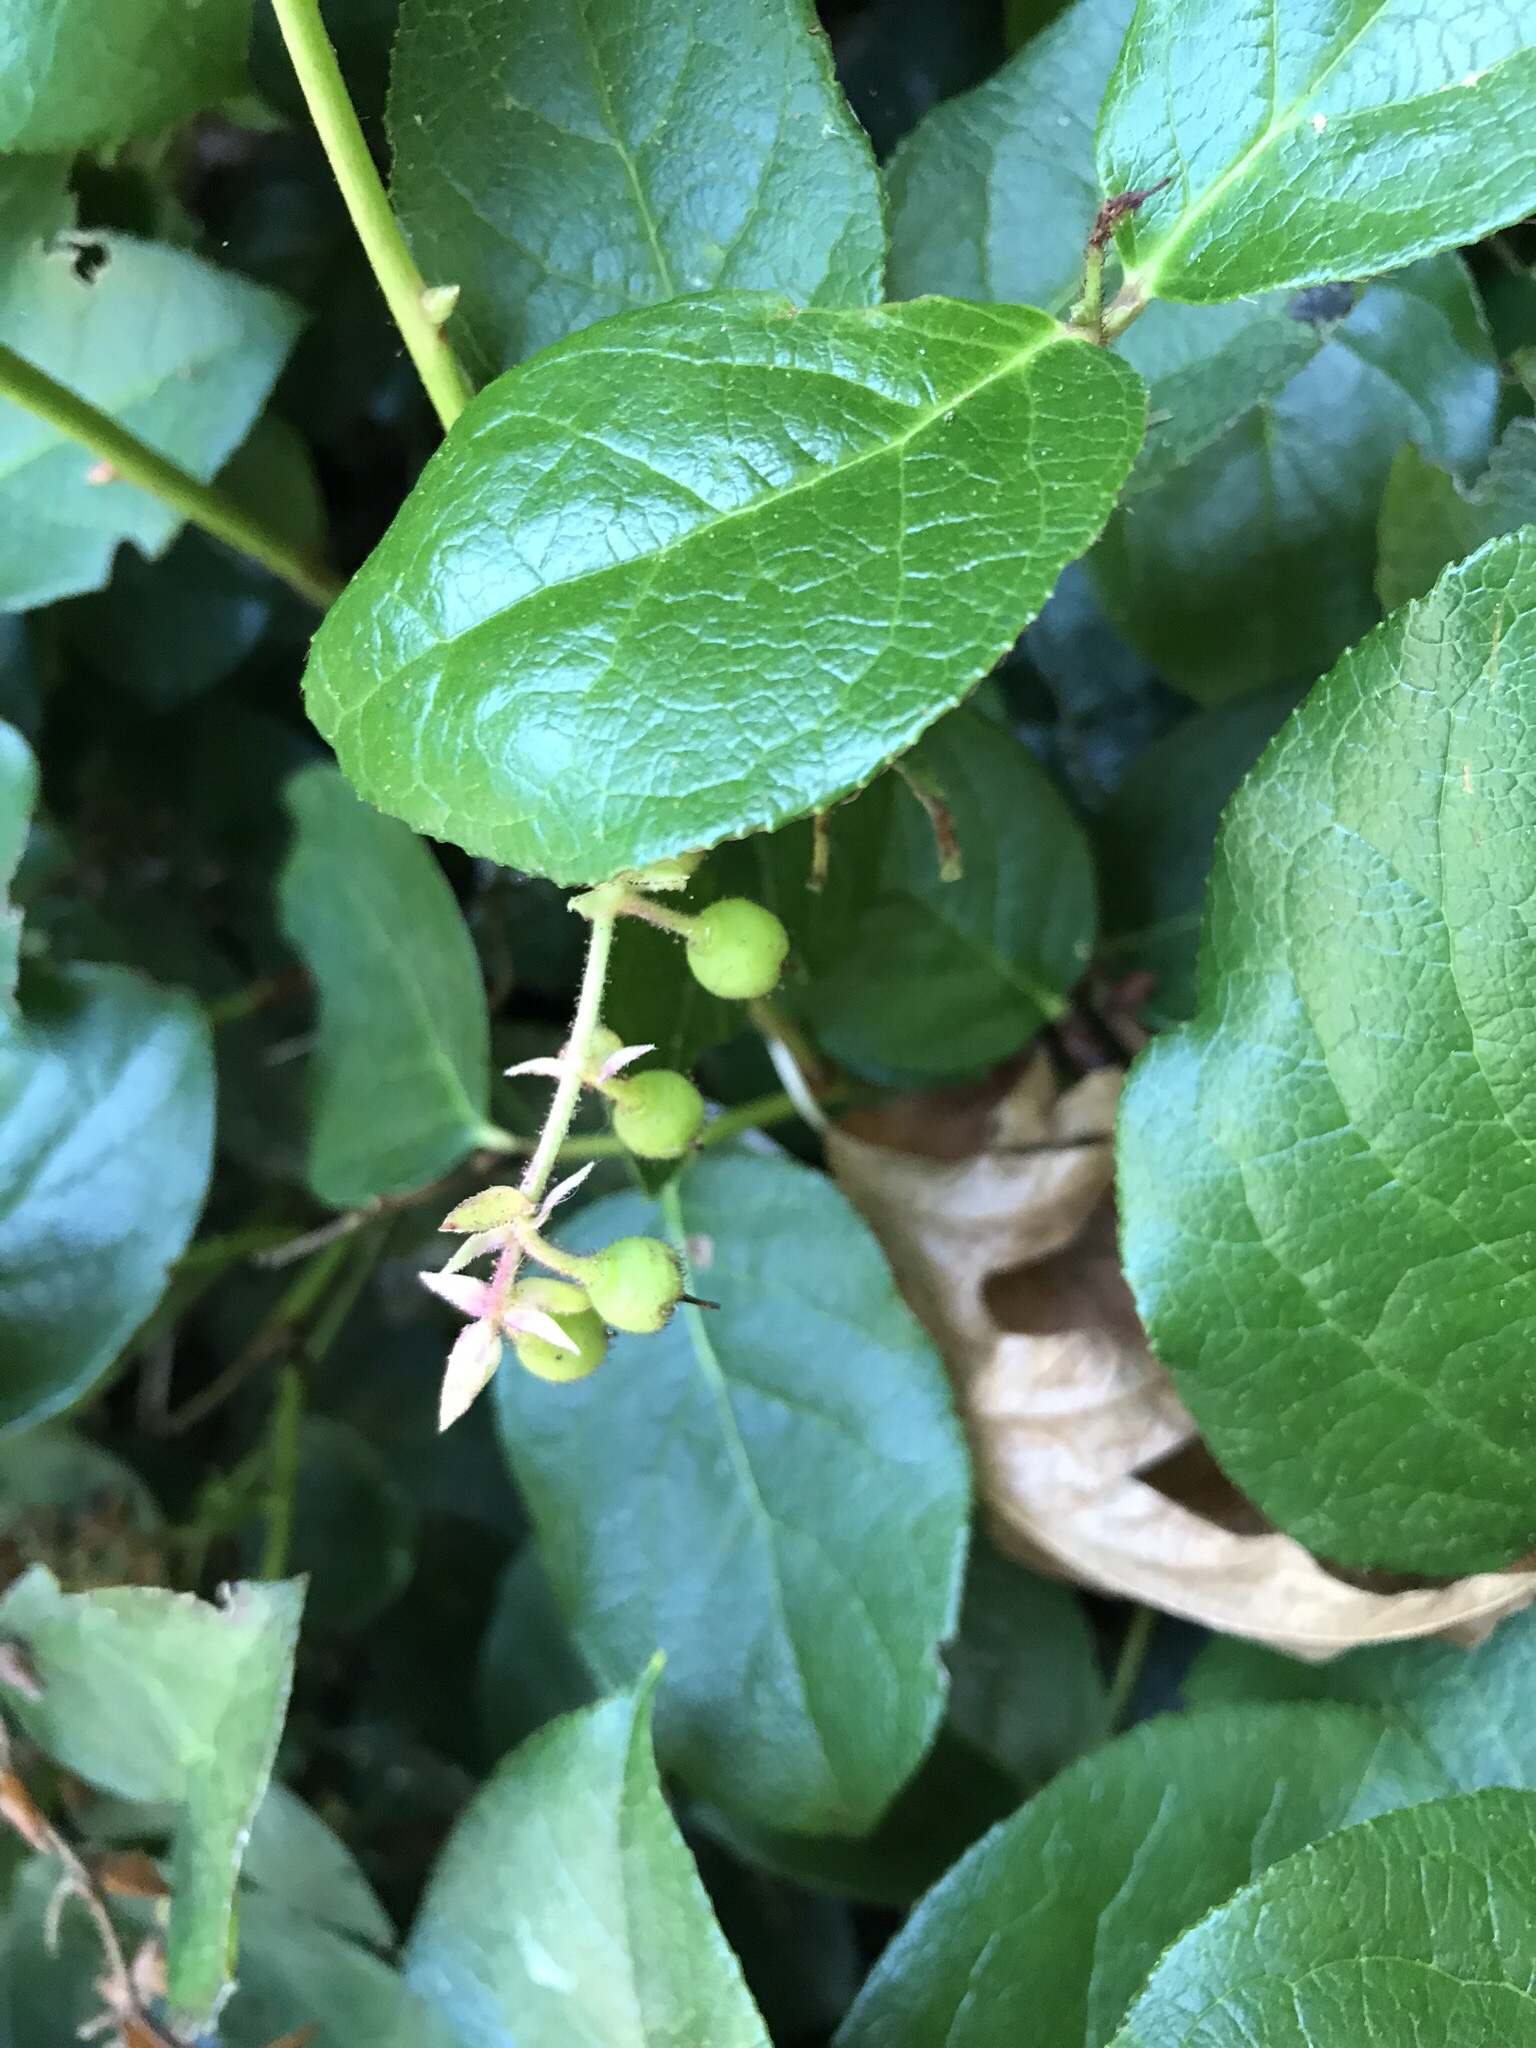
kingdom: Plantae
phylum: Tracheophyta
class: Magnoliopsida
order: Ericales
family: Ericaceae
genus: Gaultheria
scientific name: Gaultheria shallon
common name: Shallon
